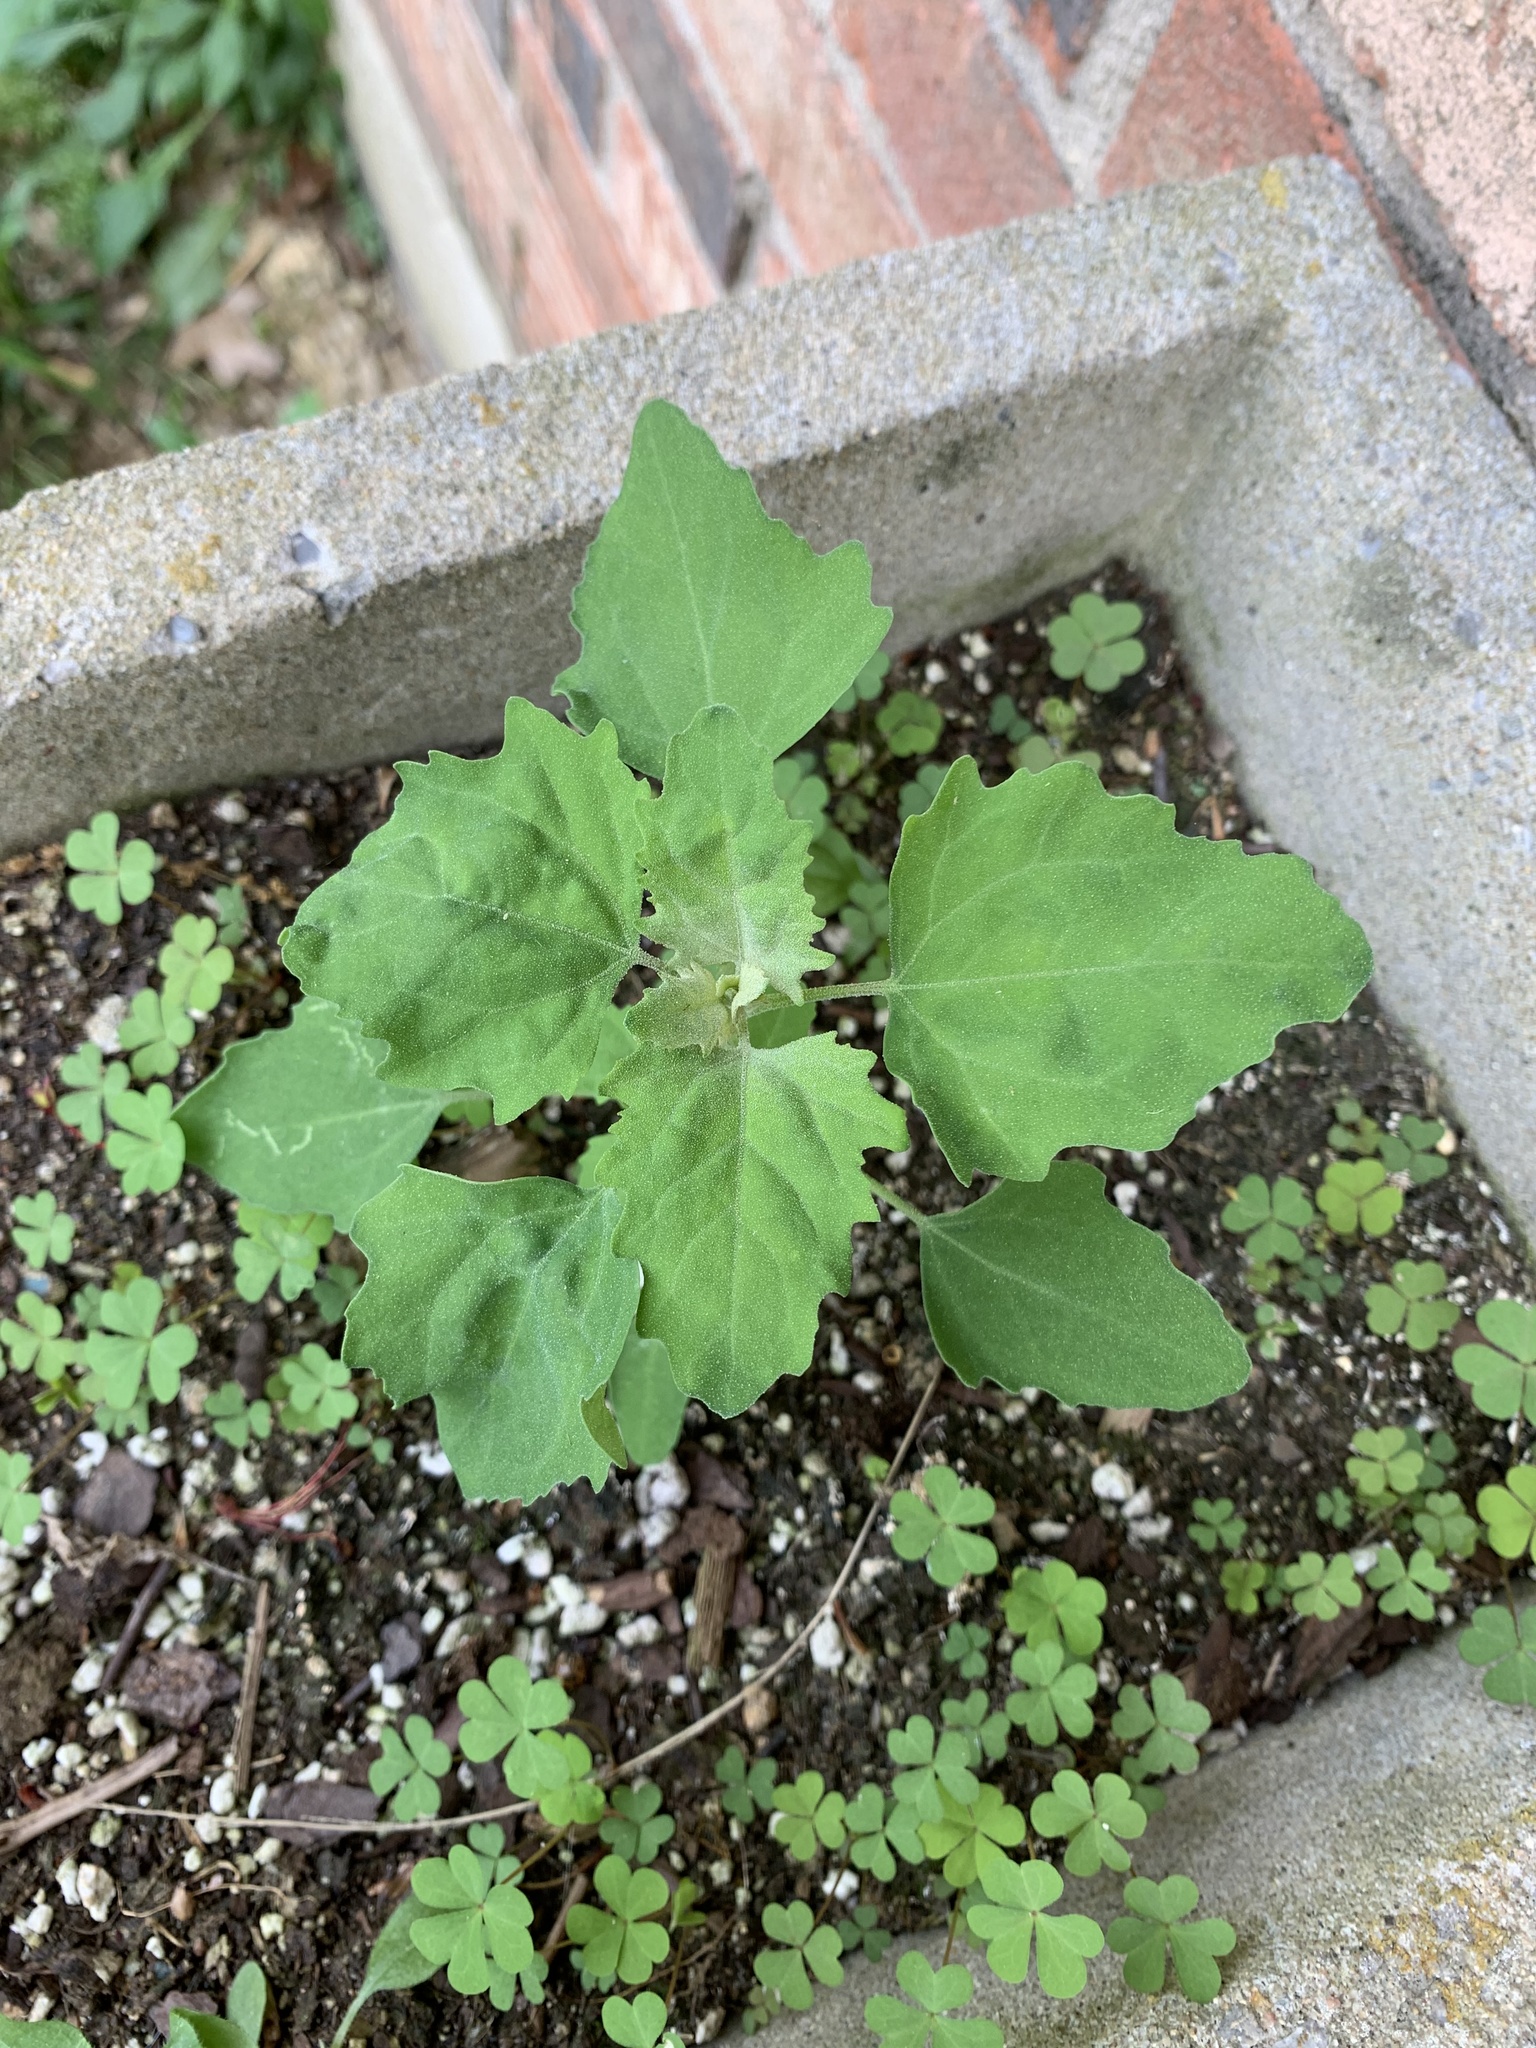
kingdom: Plantae
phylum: Tracheophyta
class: Magnoliopsida
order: Caryophyllales
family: Amaranthaceae
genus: Chenopodium
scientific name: Chenopodium album
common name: Fat-hen
